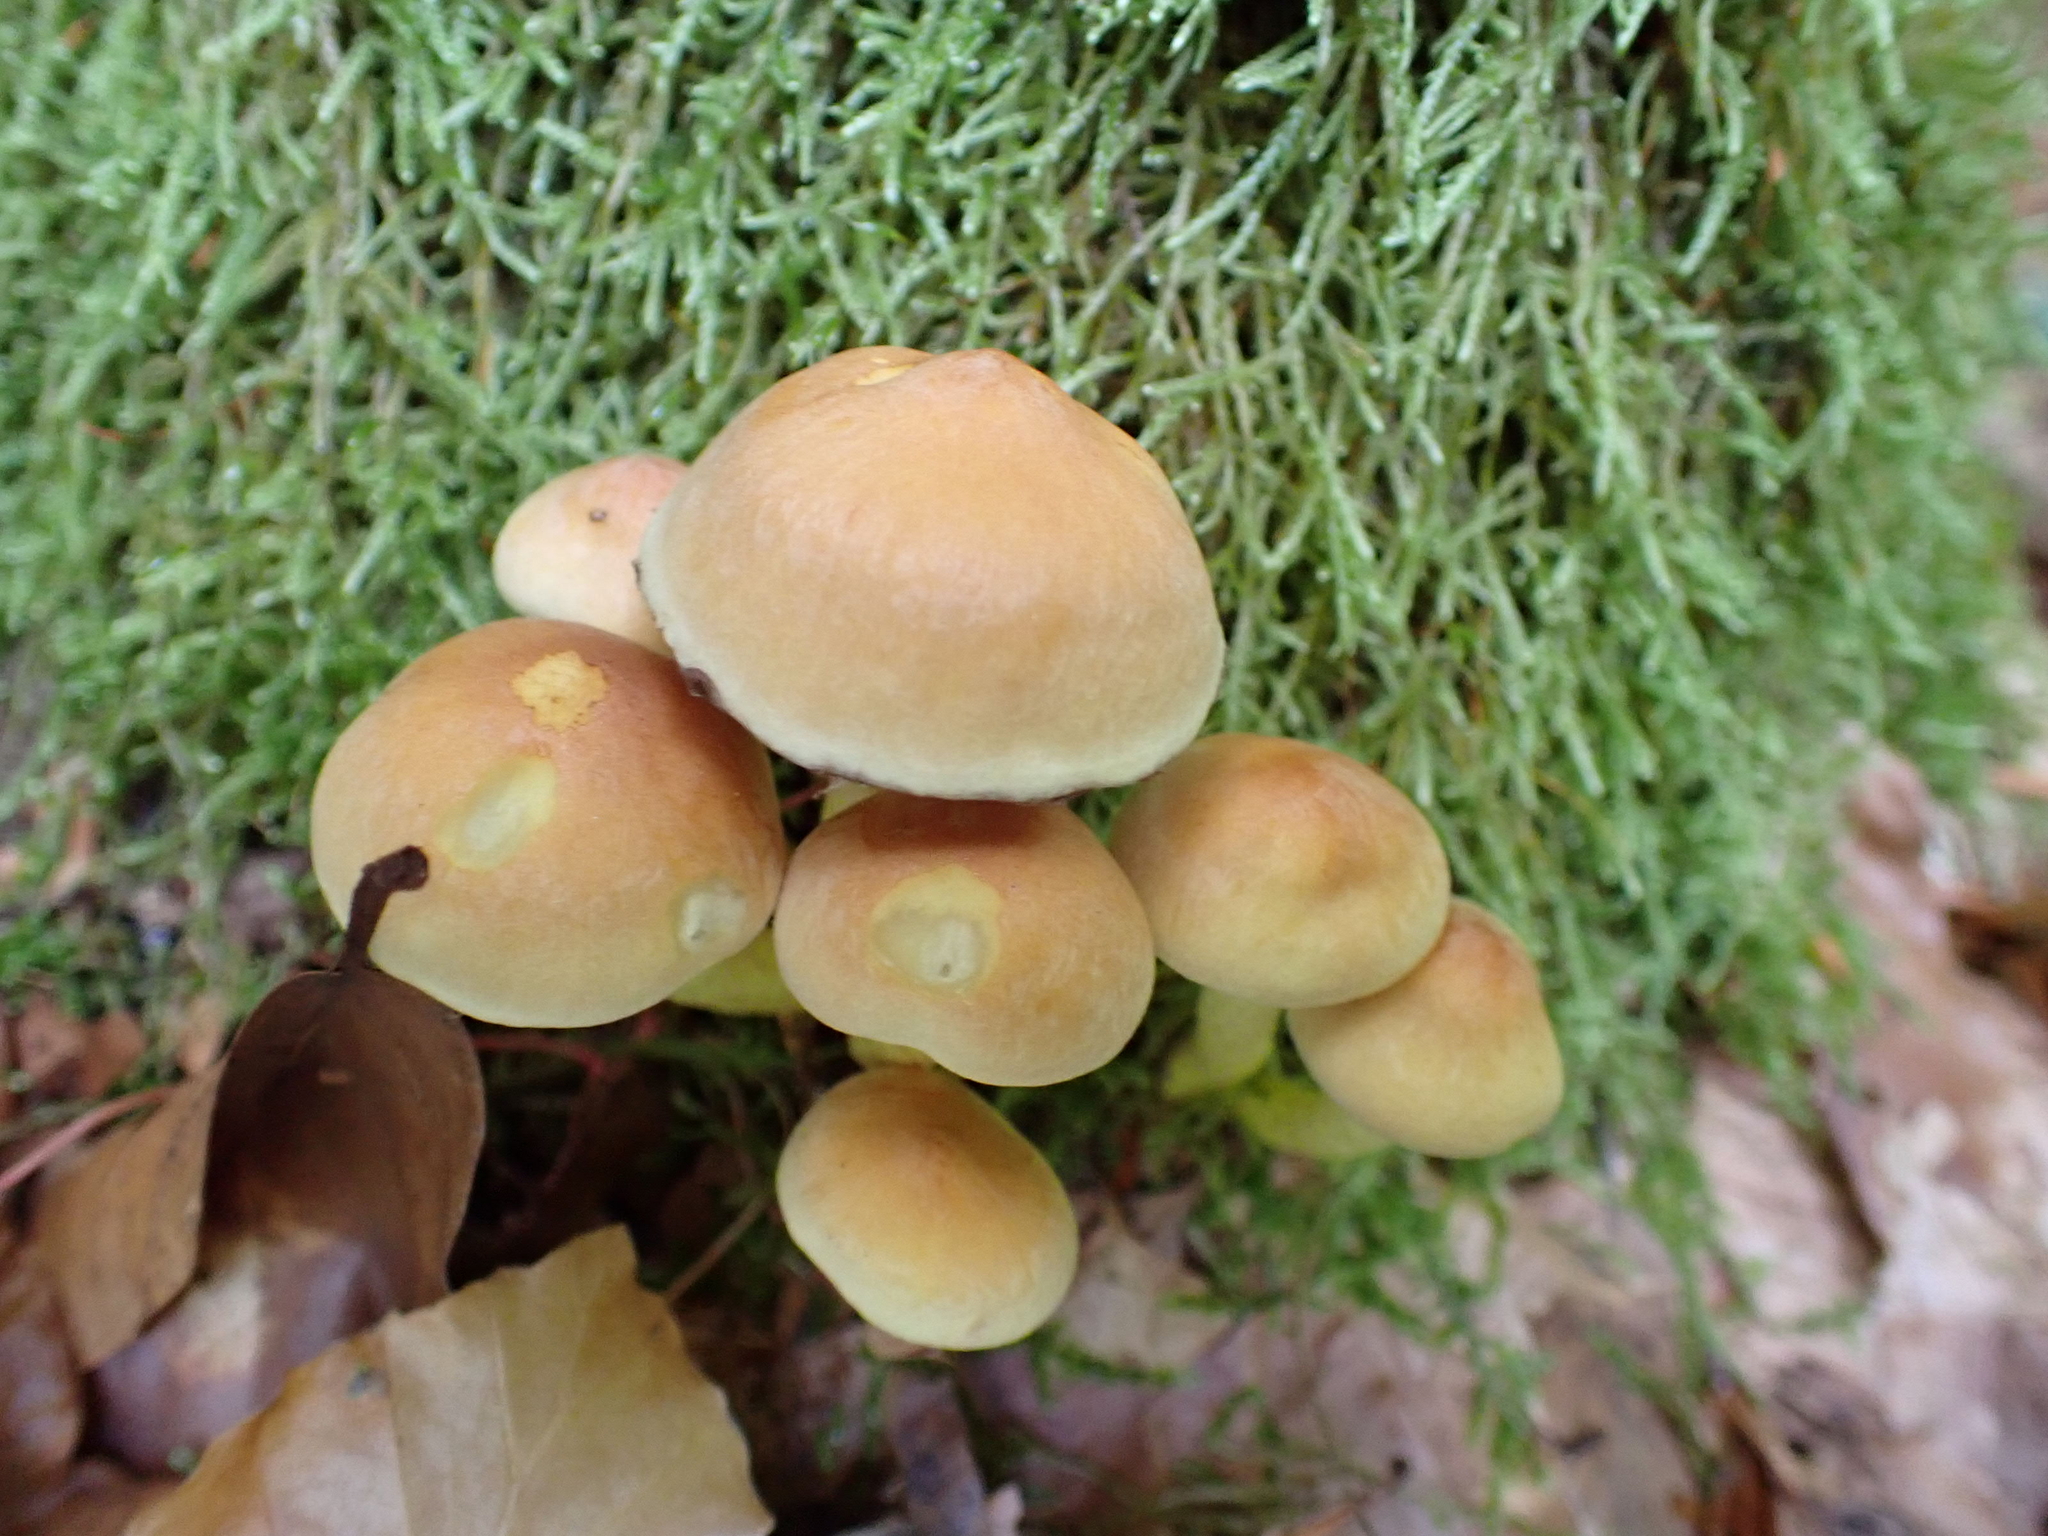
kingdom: Fungi
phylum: Basidiomycota
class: Agaricomycetes
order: Agaricales
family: Strophariaceae
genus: Hypholoma
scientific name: Hypholoma fasciculare
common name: Sulphur tuft
